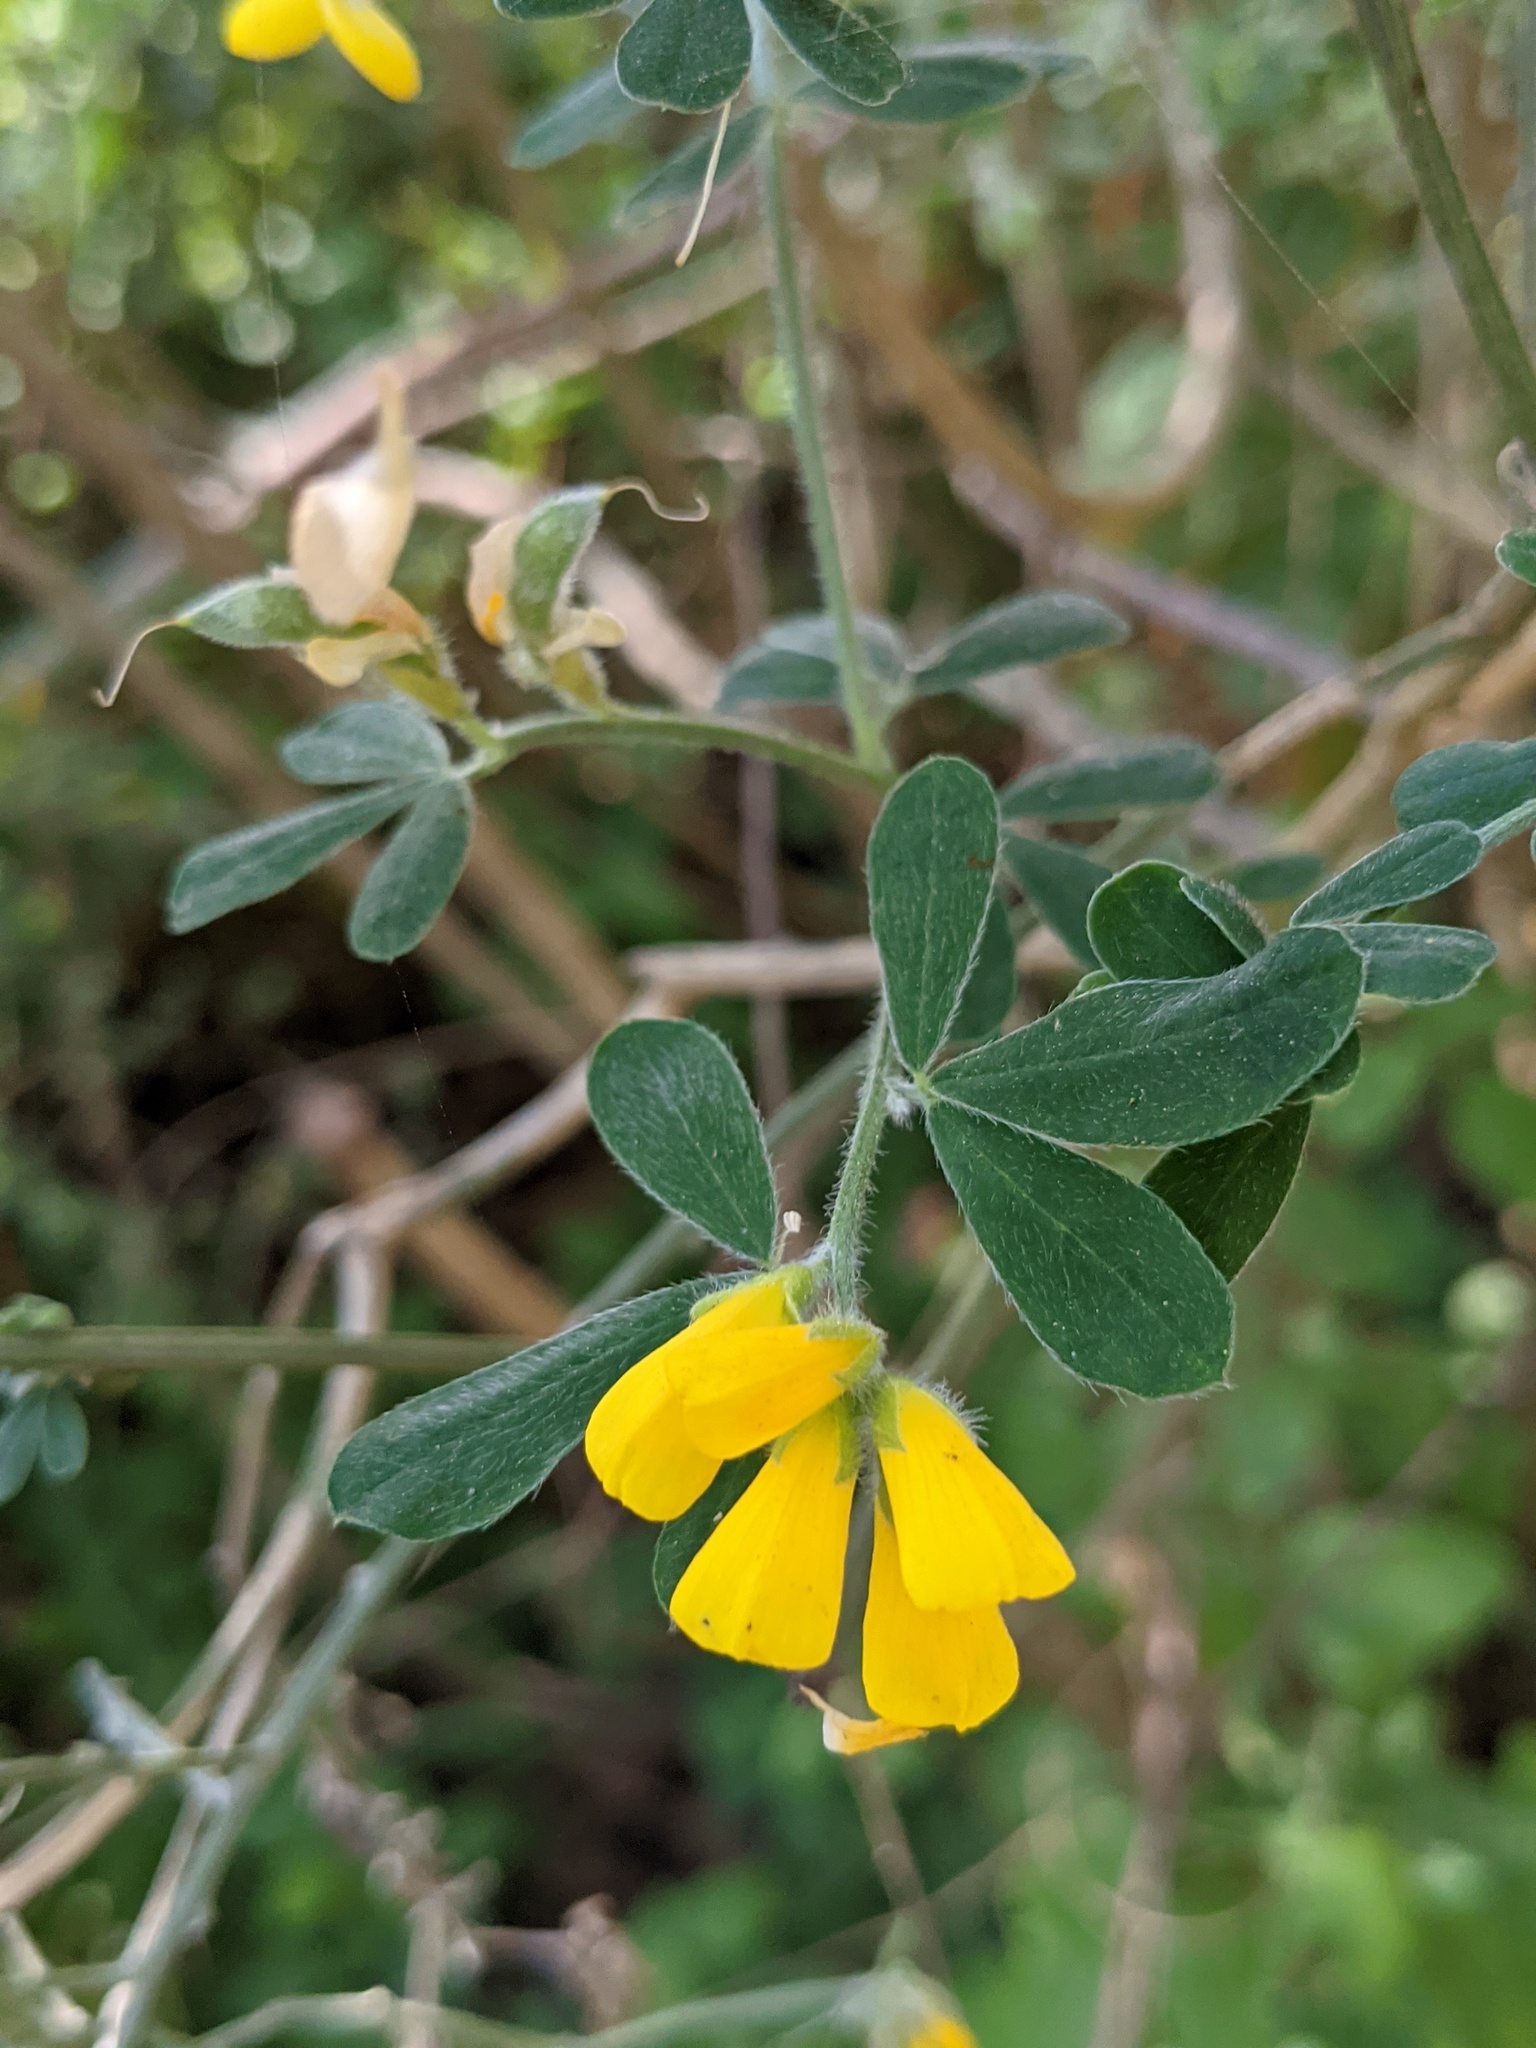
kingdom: Plantae
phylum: Tracheophyta
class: Magnoliopsida
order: Fabales
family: Fabaceae
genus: Genista
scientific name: Genista monspessulana
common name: Montpellier broom
